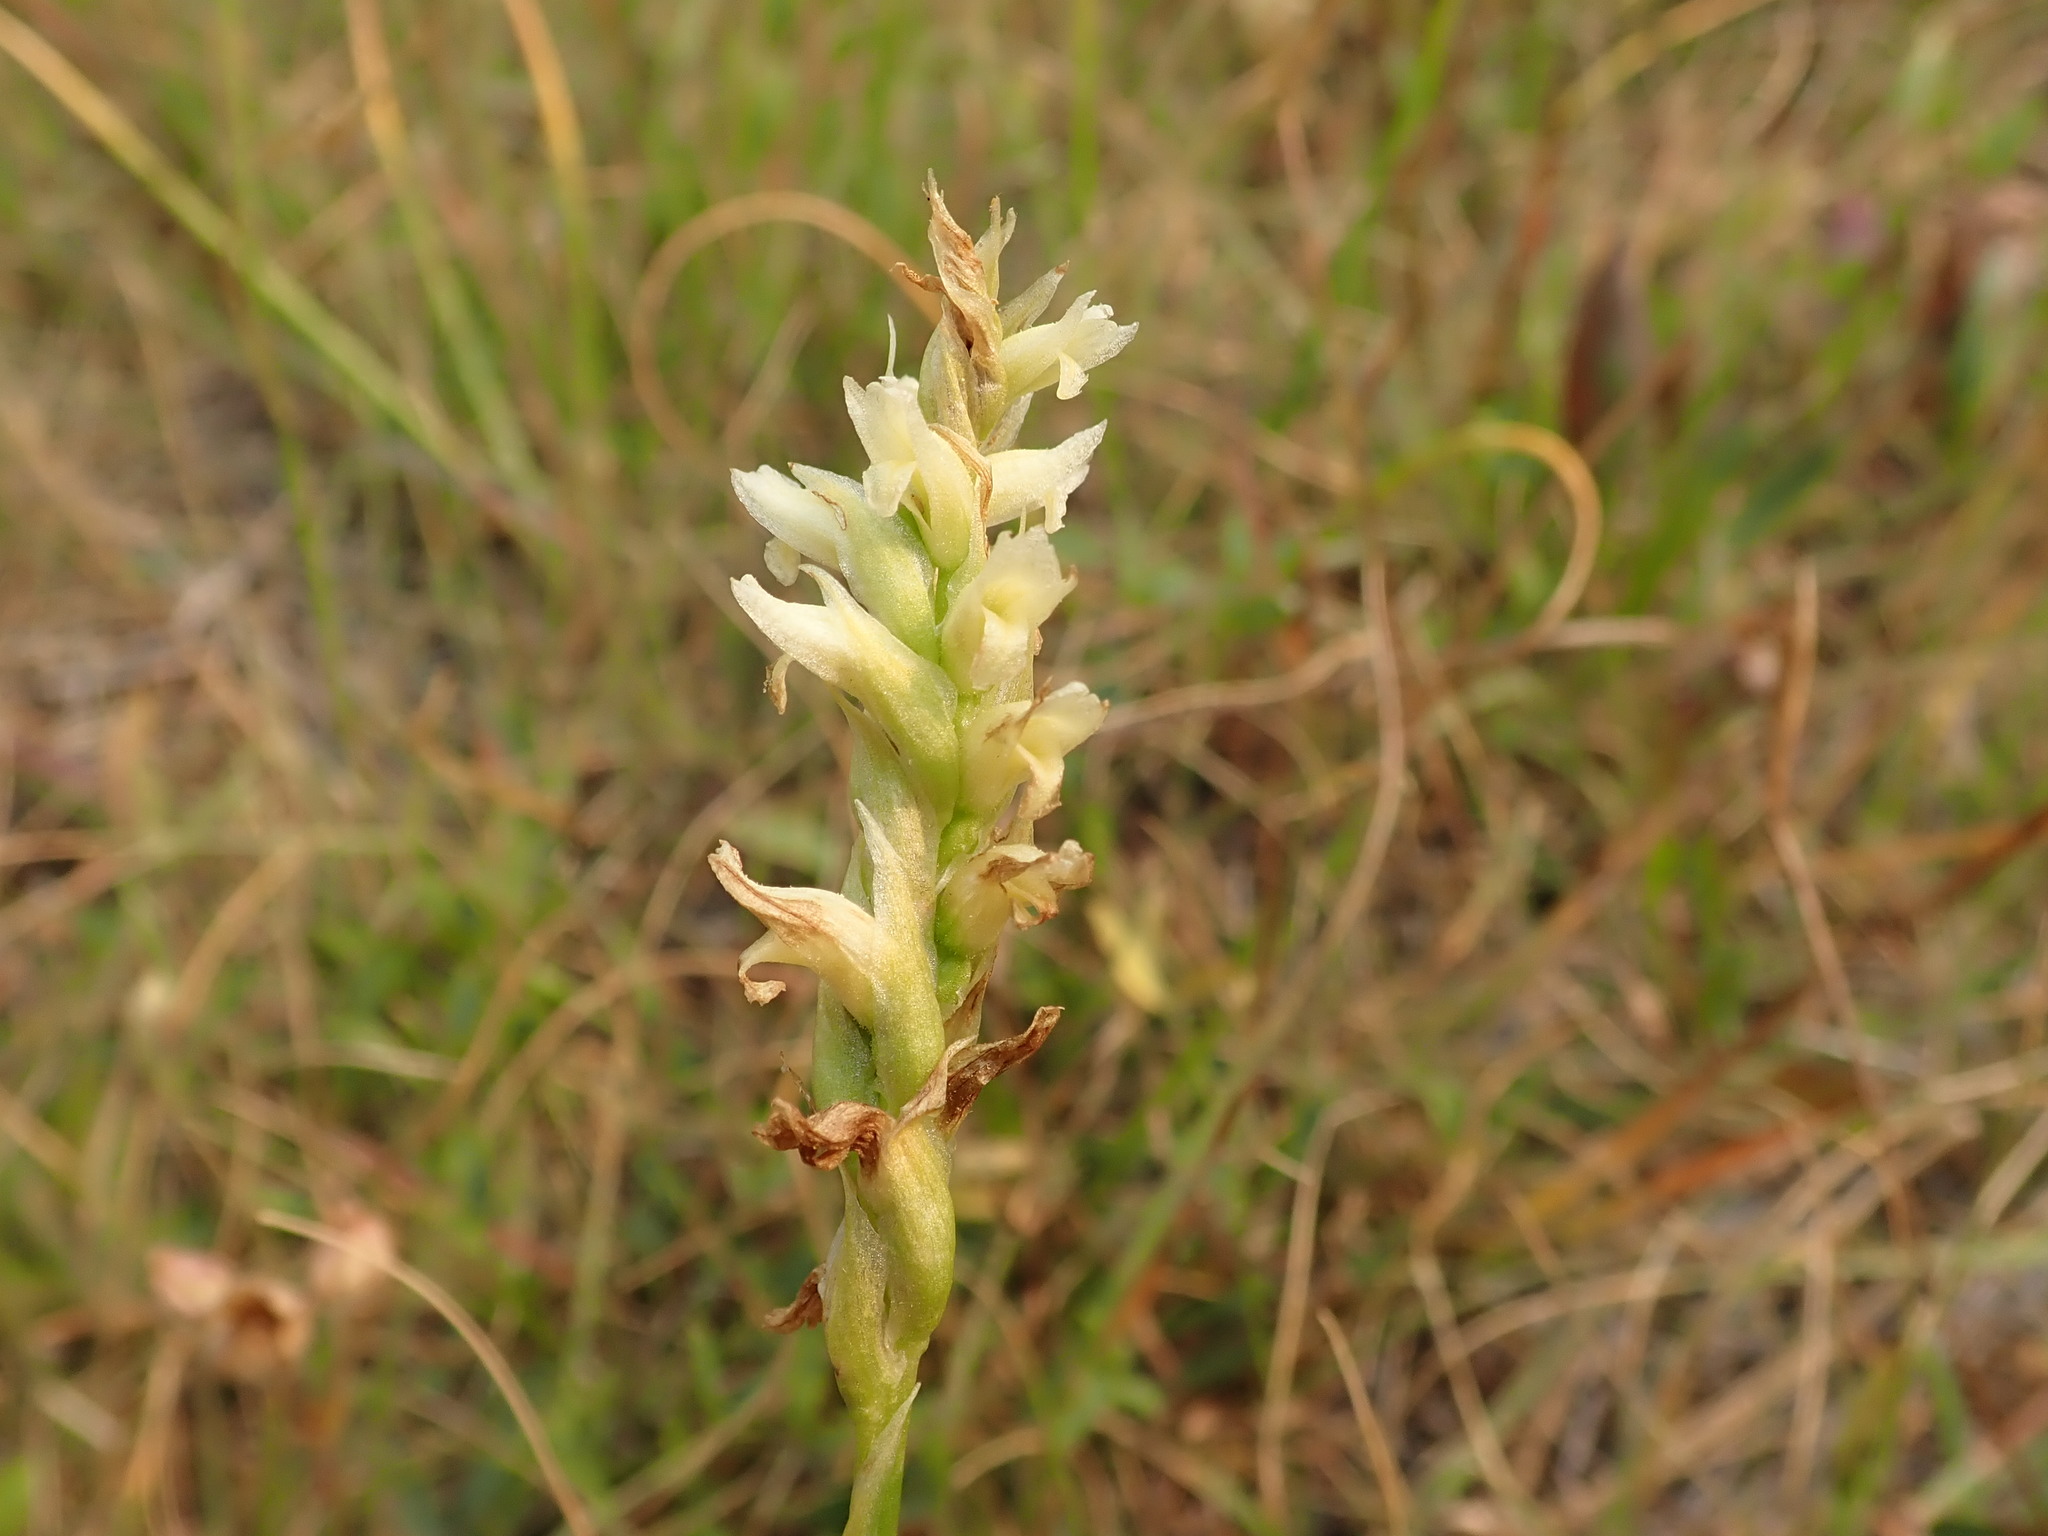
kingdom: Plantae
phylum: Tracheophyta
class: Liliopsida
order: Asparagales
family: Orchidaceae
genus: Spiranthes
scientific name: Spiranthes romanzoffiana
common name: Irish lady's-tresses
